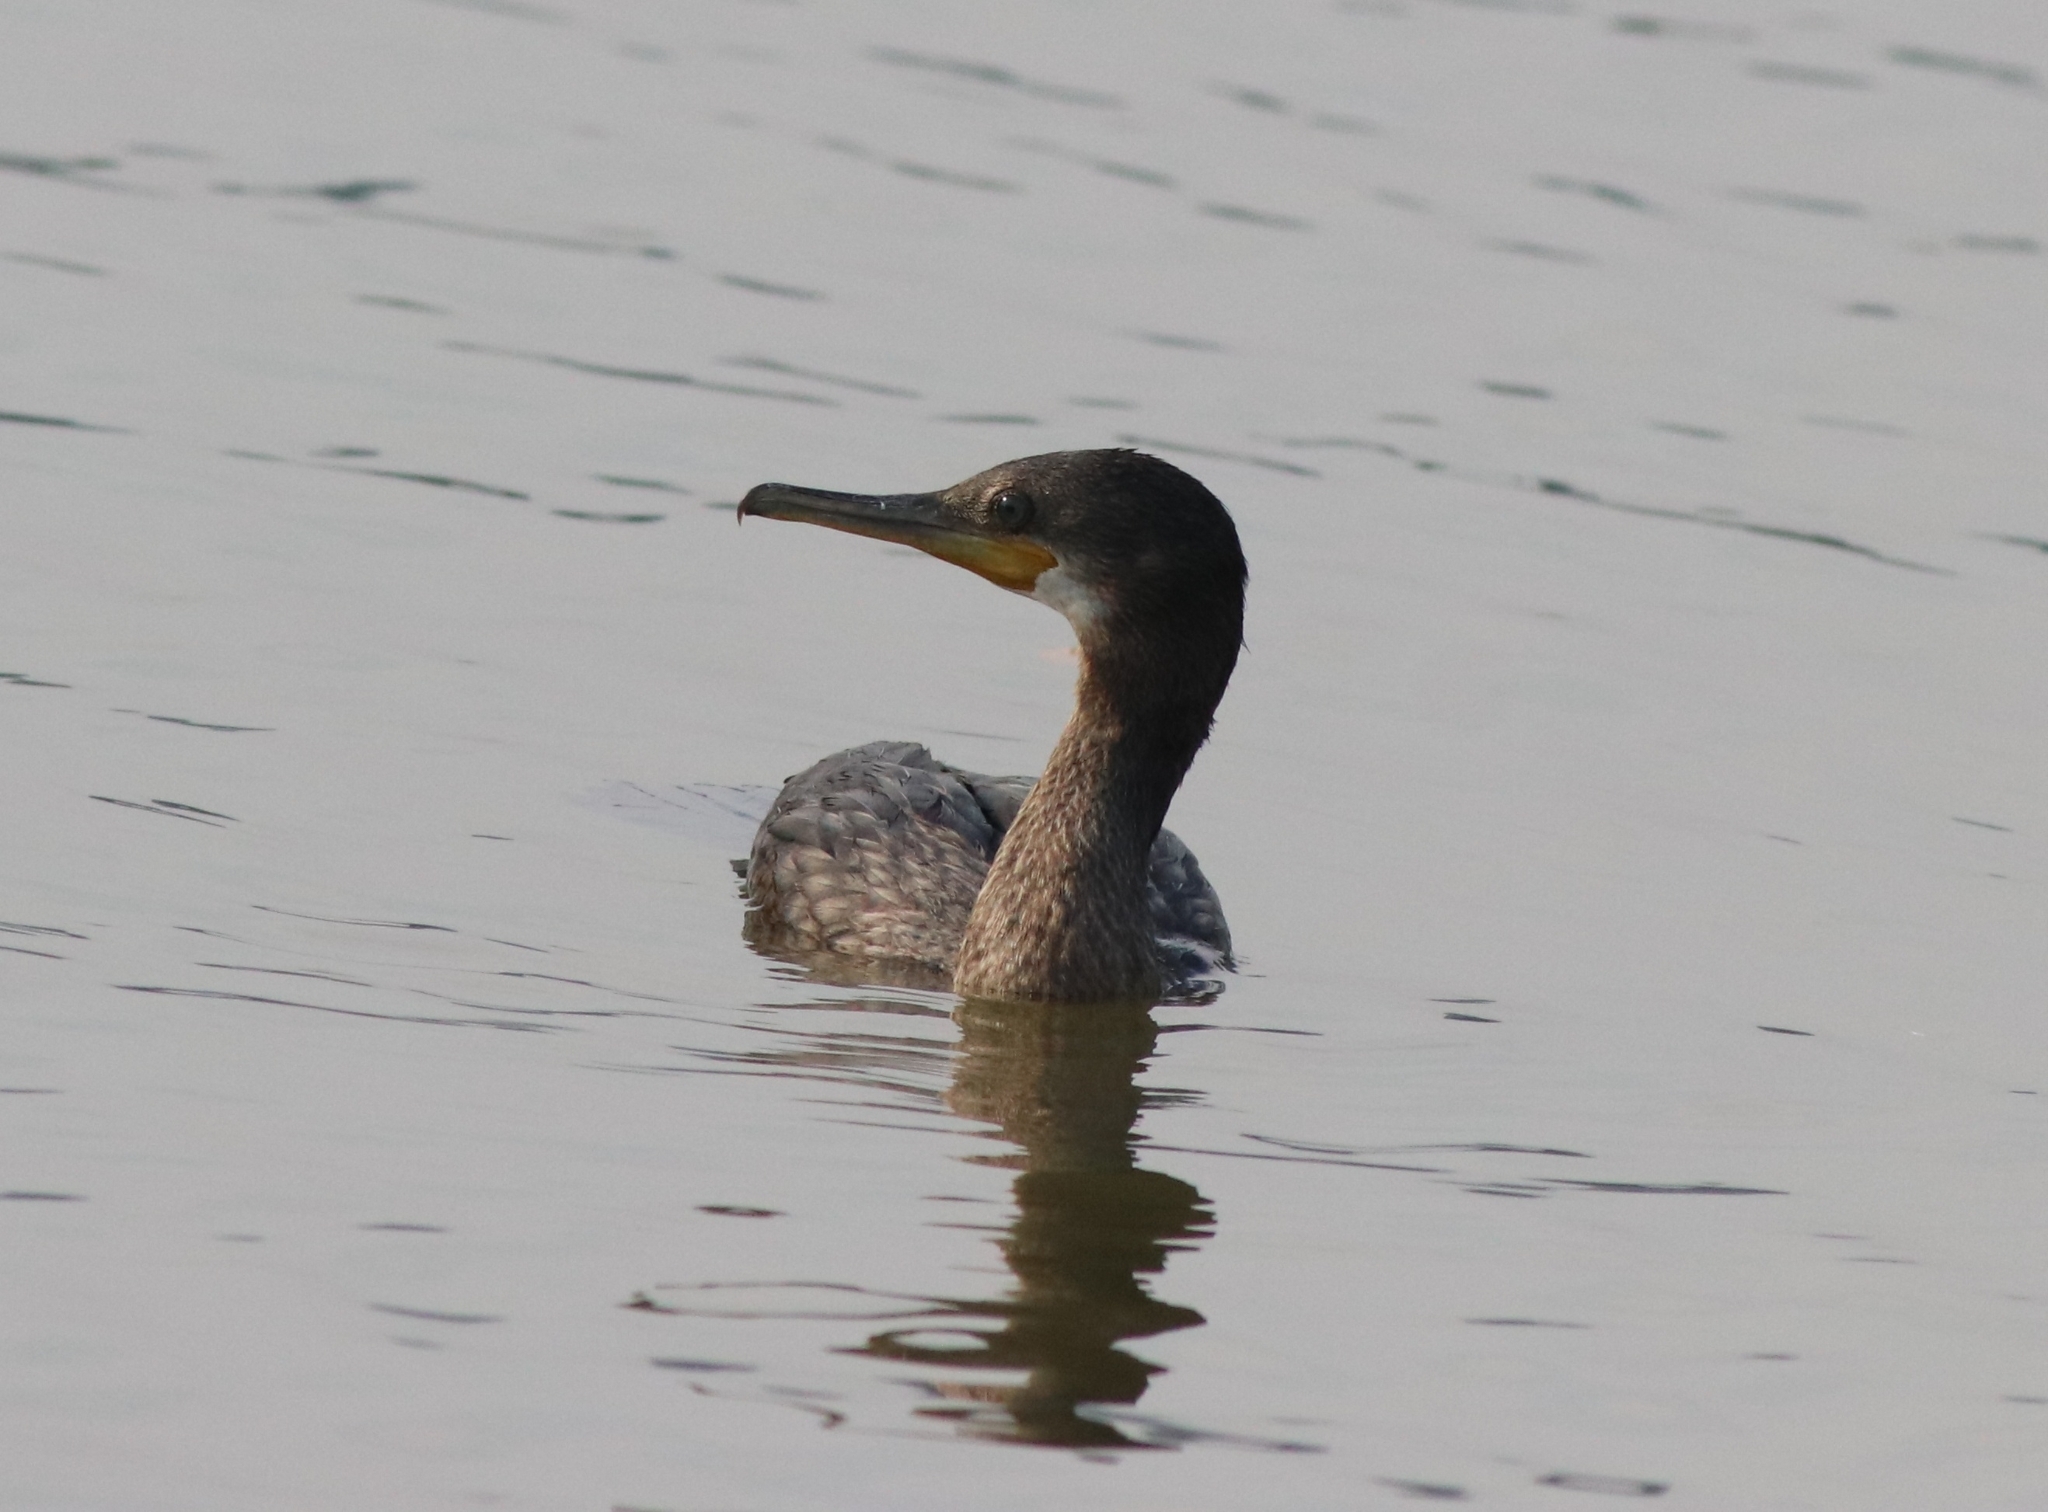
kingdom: Animalia
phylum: Chordata
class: Aves
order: Suliformes
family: Phalacrocoracidae
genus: Phalacrocorax
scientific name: Phalacrocorax fuscicollis
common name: Indian cormorant
